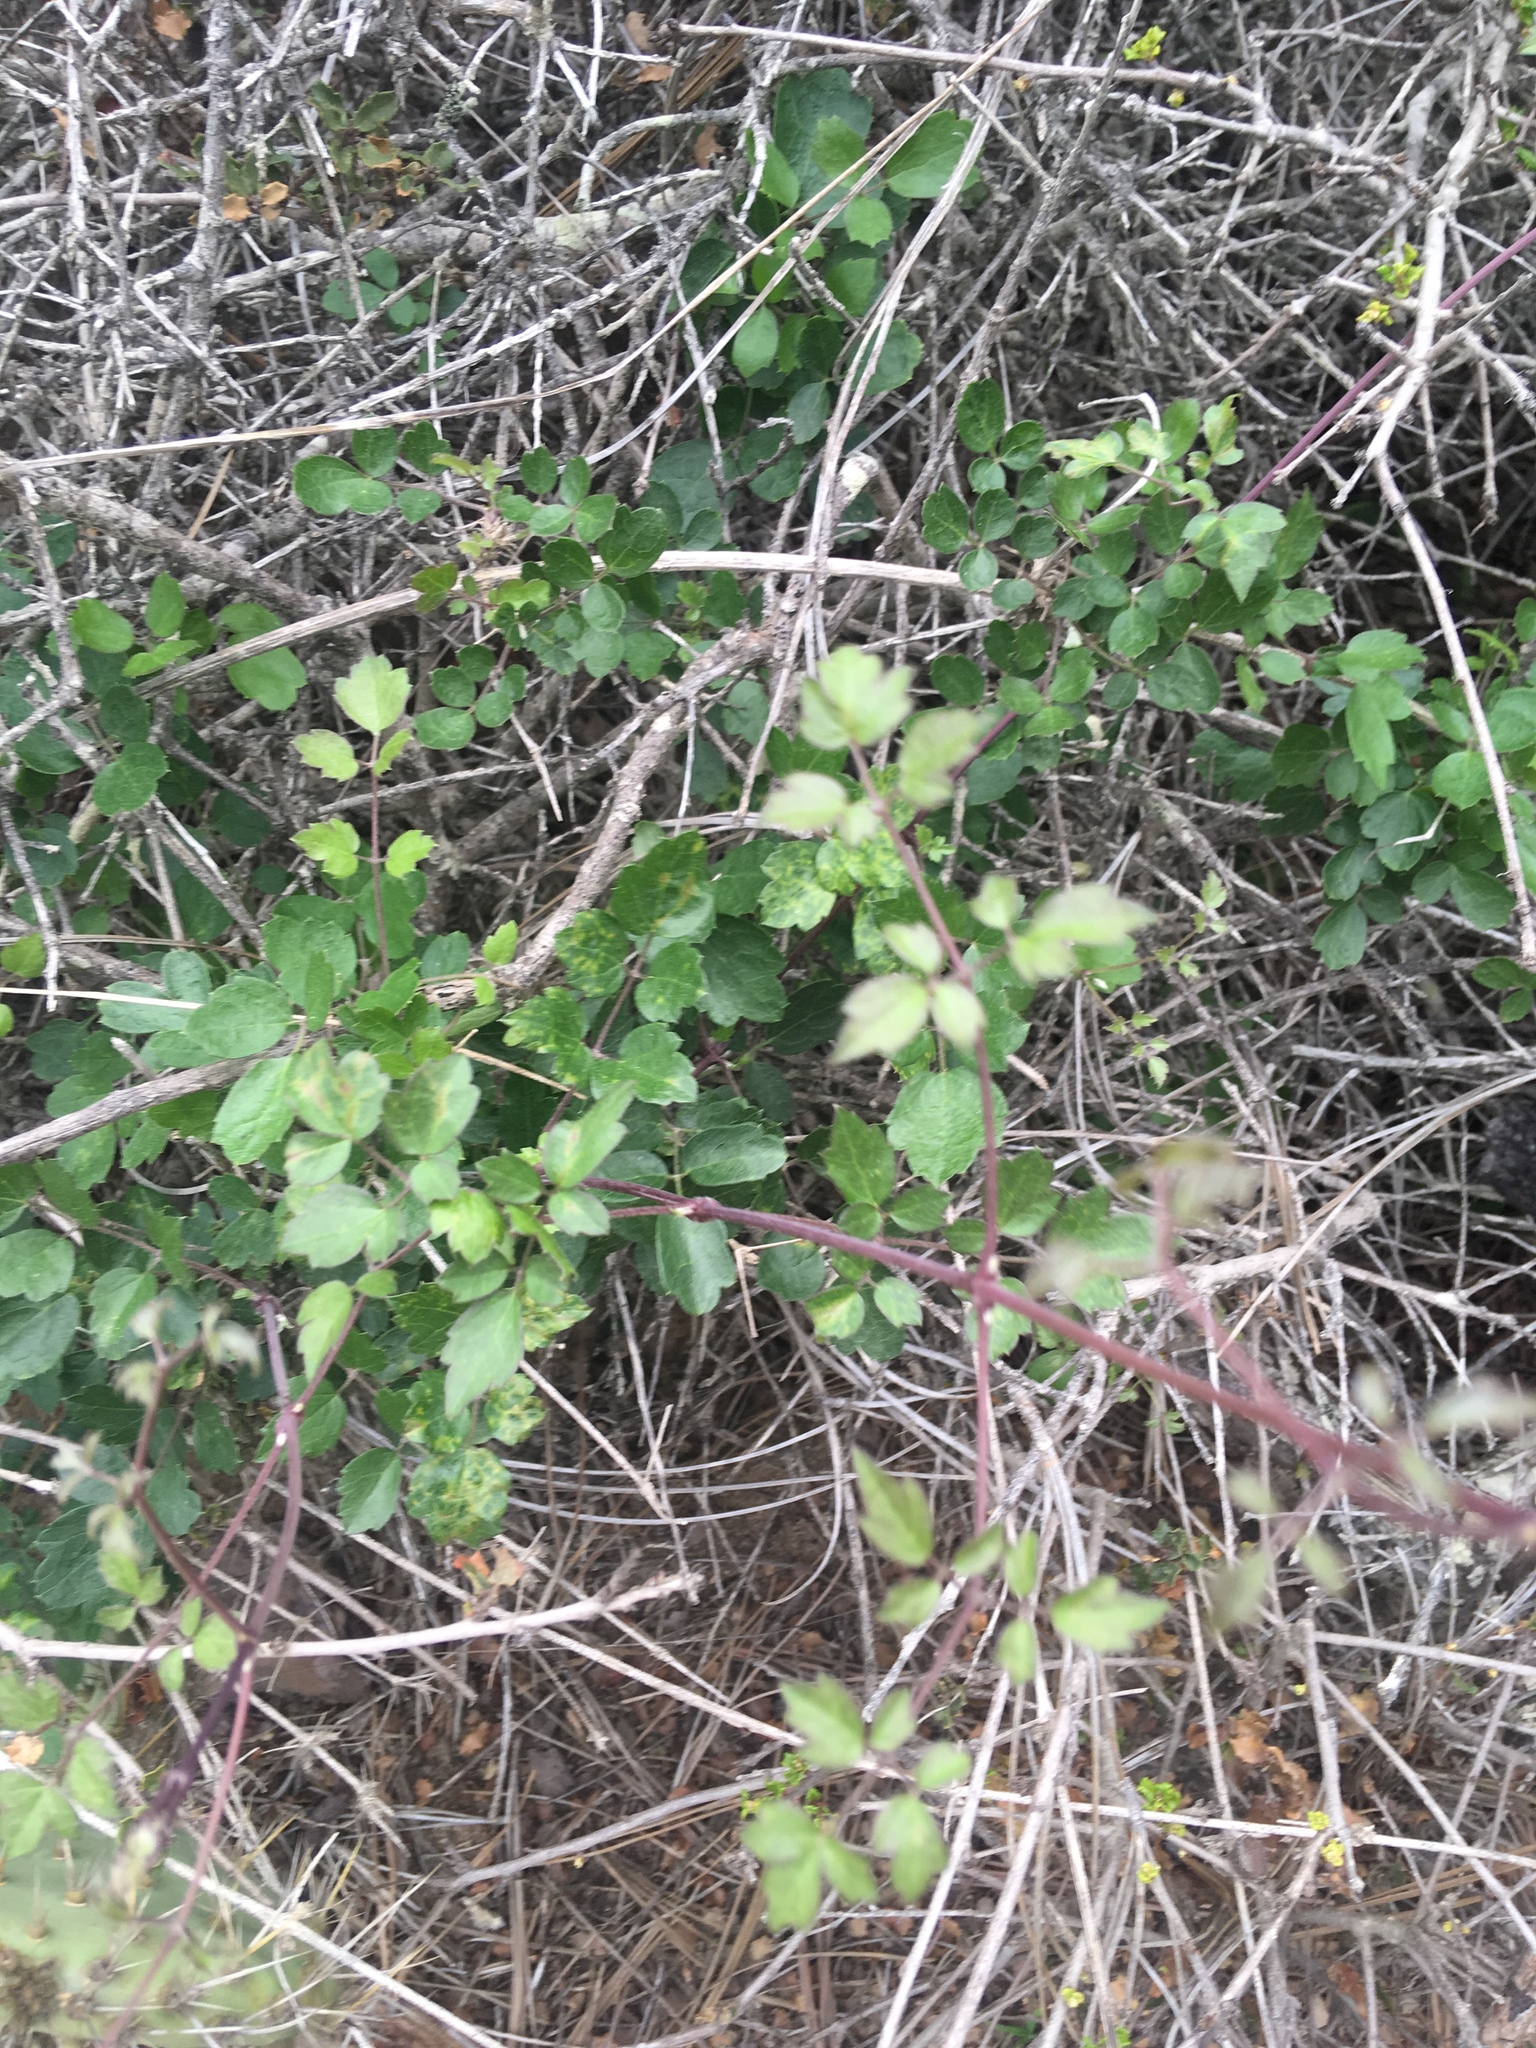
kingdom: Plantae
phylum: Tracheophyta
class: Magnoliopsida
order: Ranunculales
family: Ranunculaceae
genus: Clematis
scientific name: Clematis pauciflora
